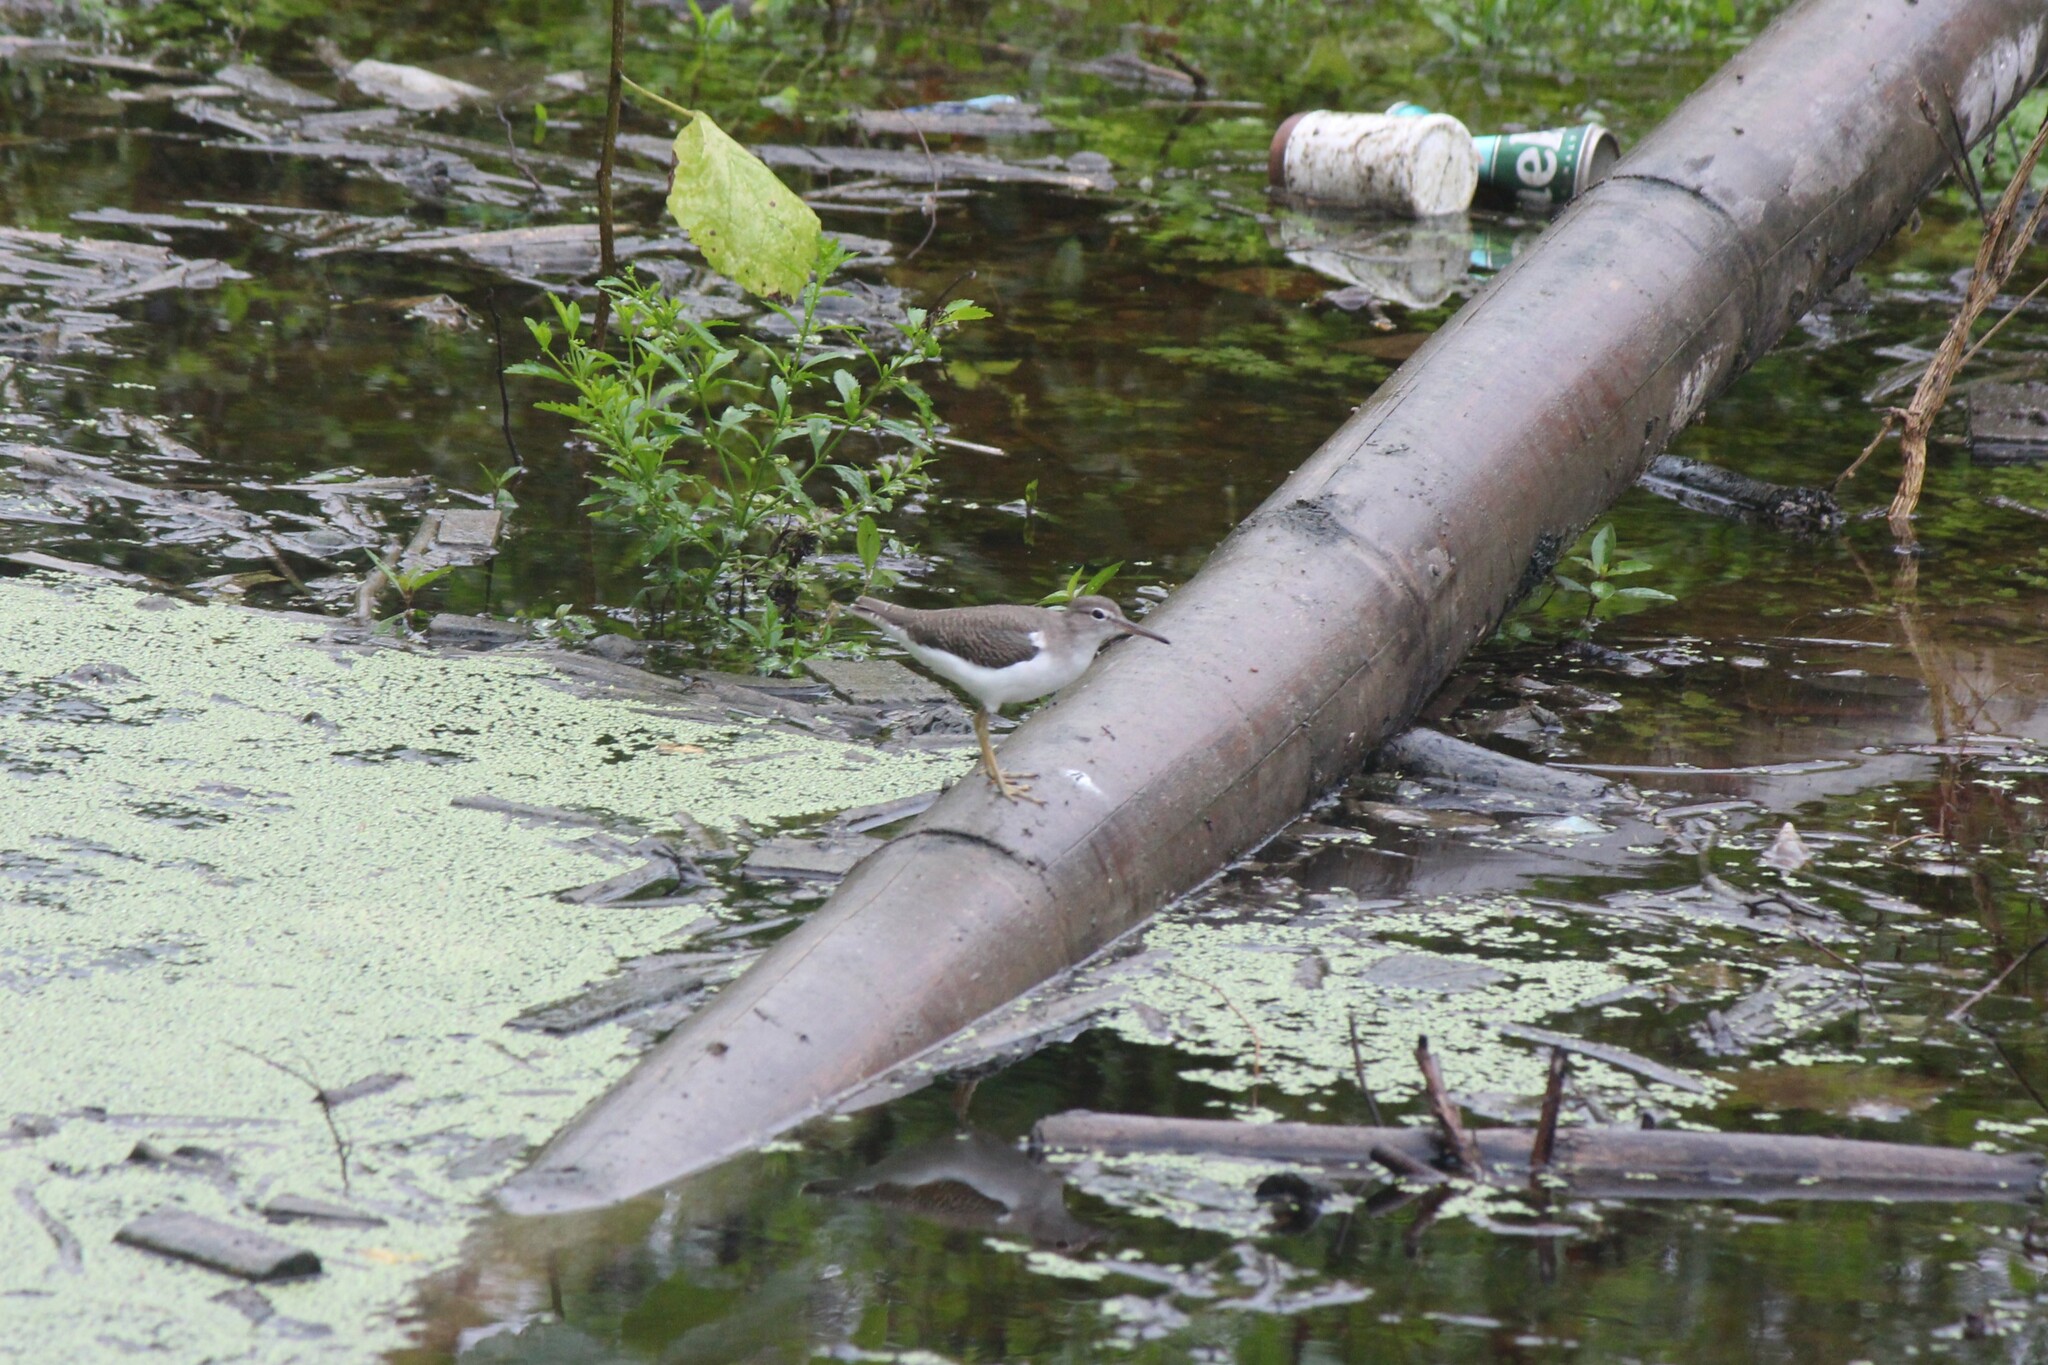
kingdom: Animalia
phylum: Chordata
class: Aves
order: Charadriiformes
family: Scolopacidae
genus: Actitis
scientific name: Actitis macularius
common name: Spotted sandpiper
